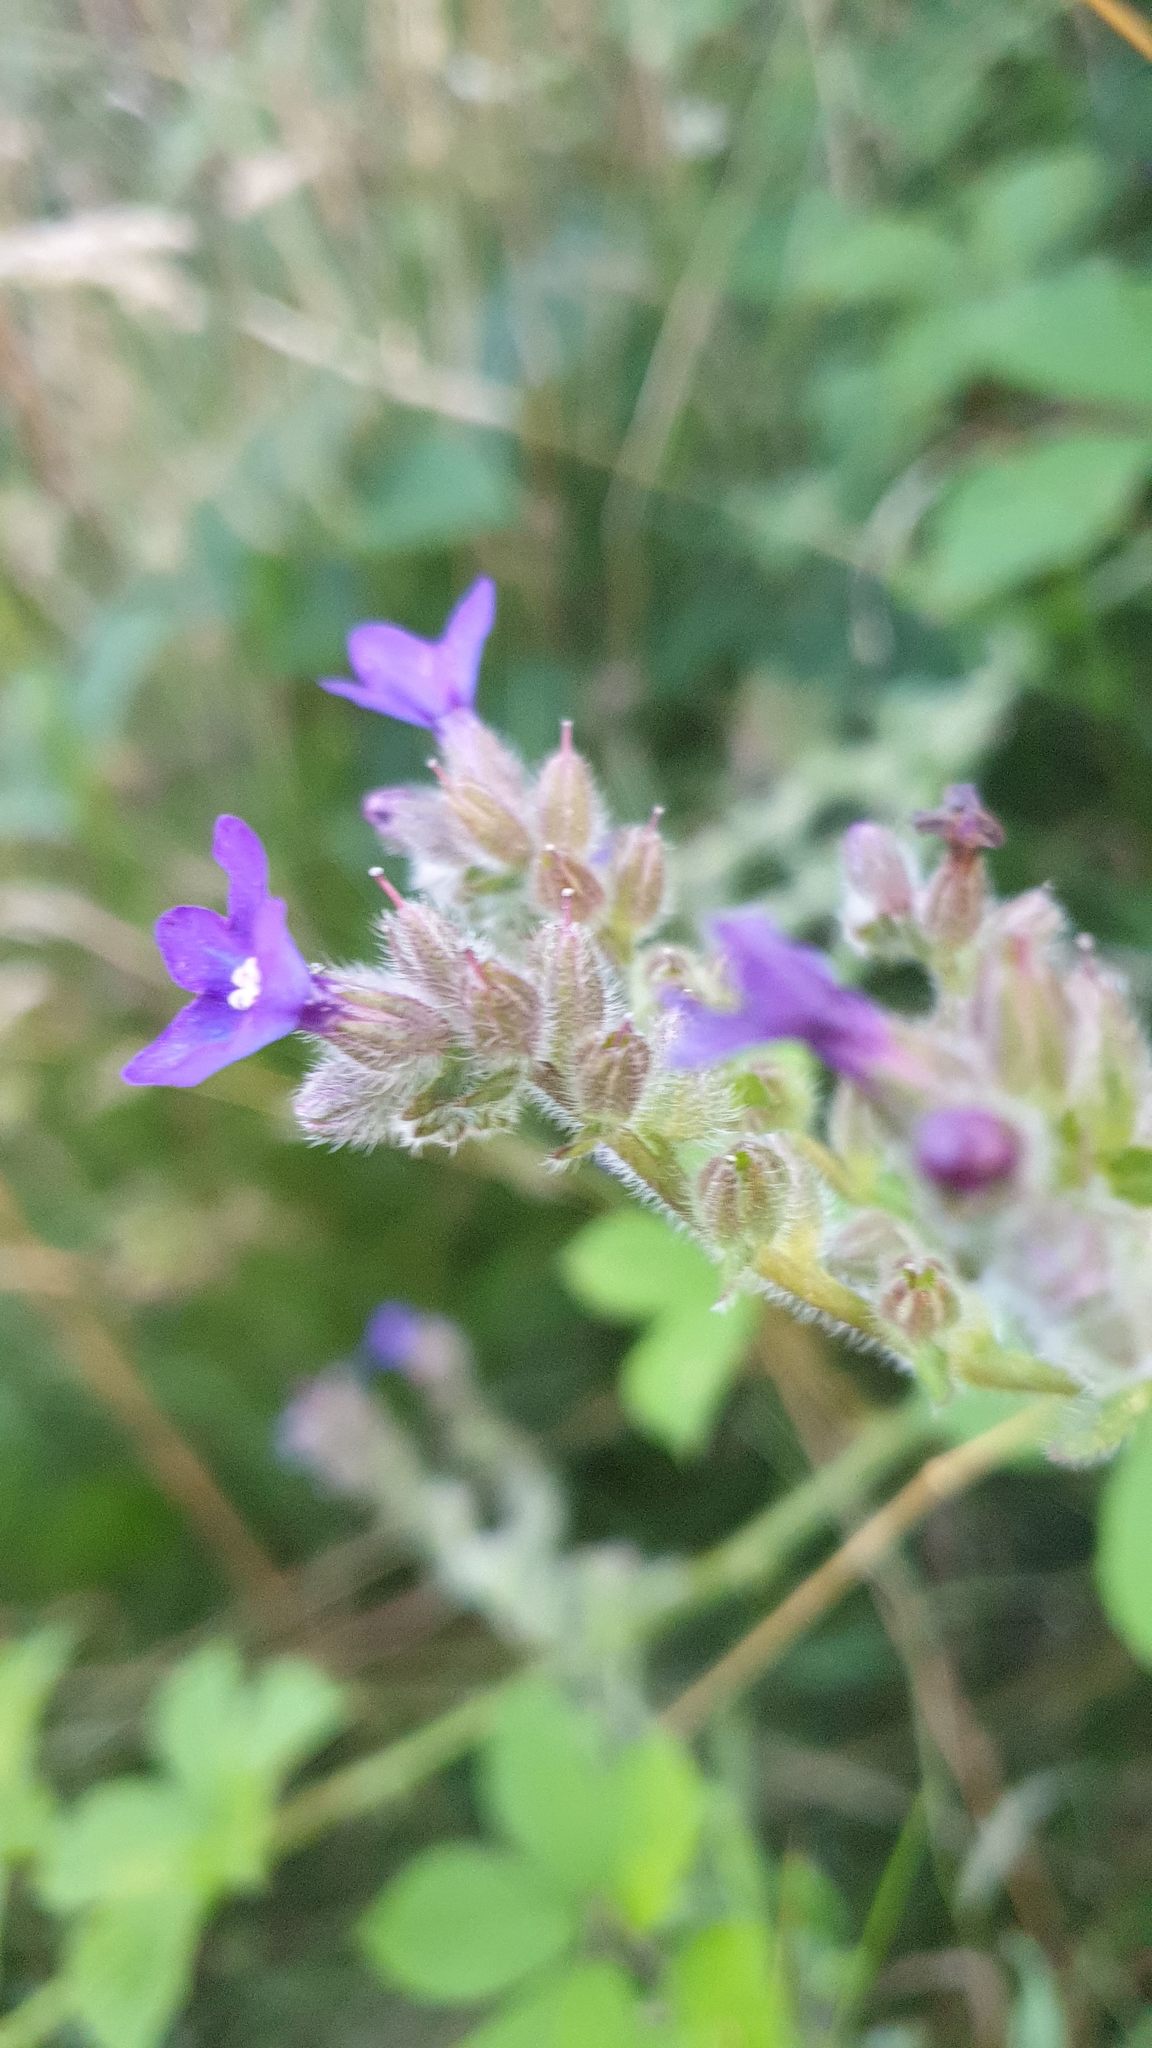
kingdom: Plantae
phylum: Tracheophyta
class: Magnoliopsida
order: Boraginales
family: Boraginaceae
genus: Anchusa
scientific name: Anchusa officinalis
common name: Alkanet
